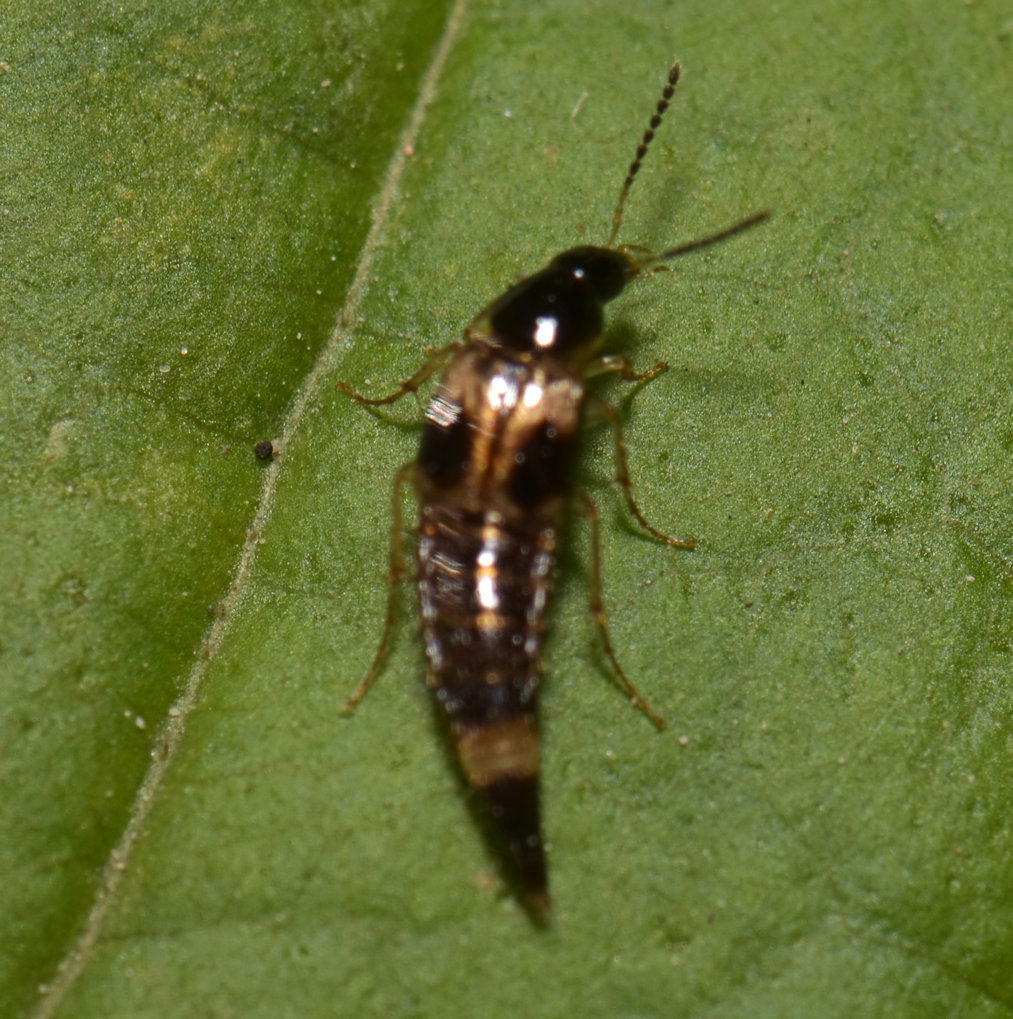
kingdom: Animalia
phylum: Arthropoda
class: Insecta
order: Coleoptera
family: Staphylinidae
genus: Bobitobus
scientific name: Bobitobus fungicola
